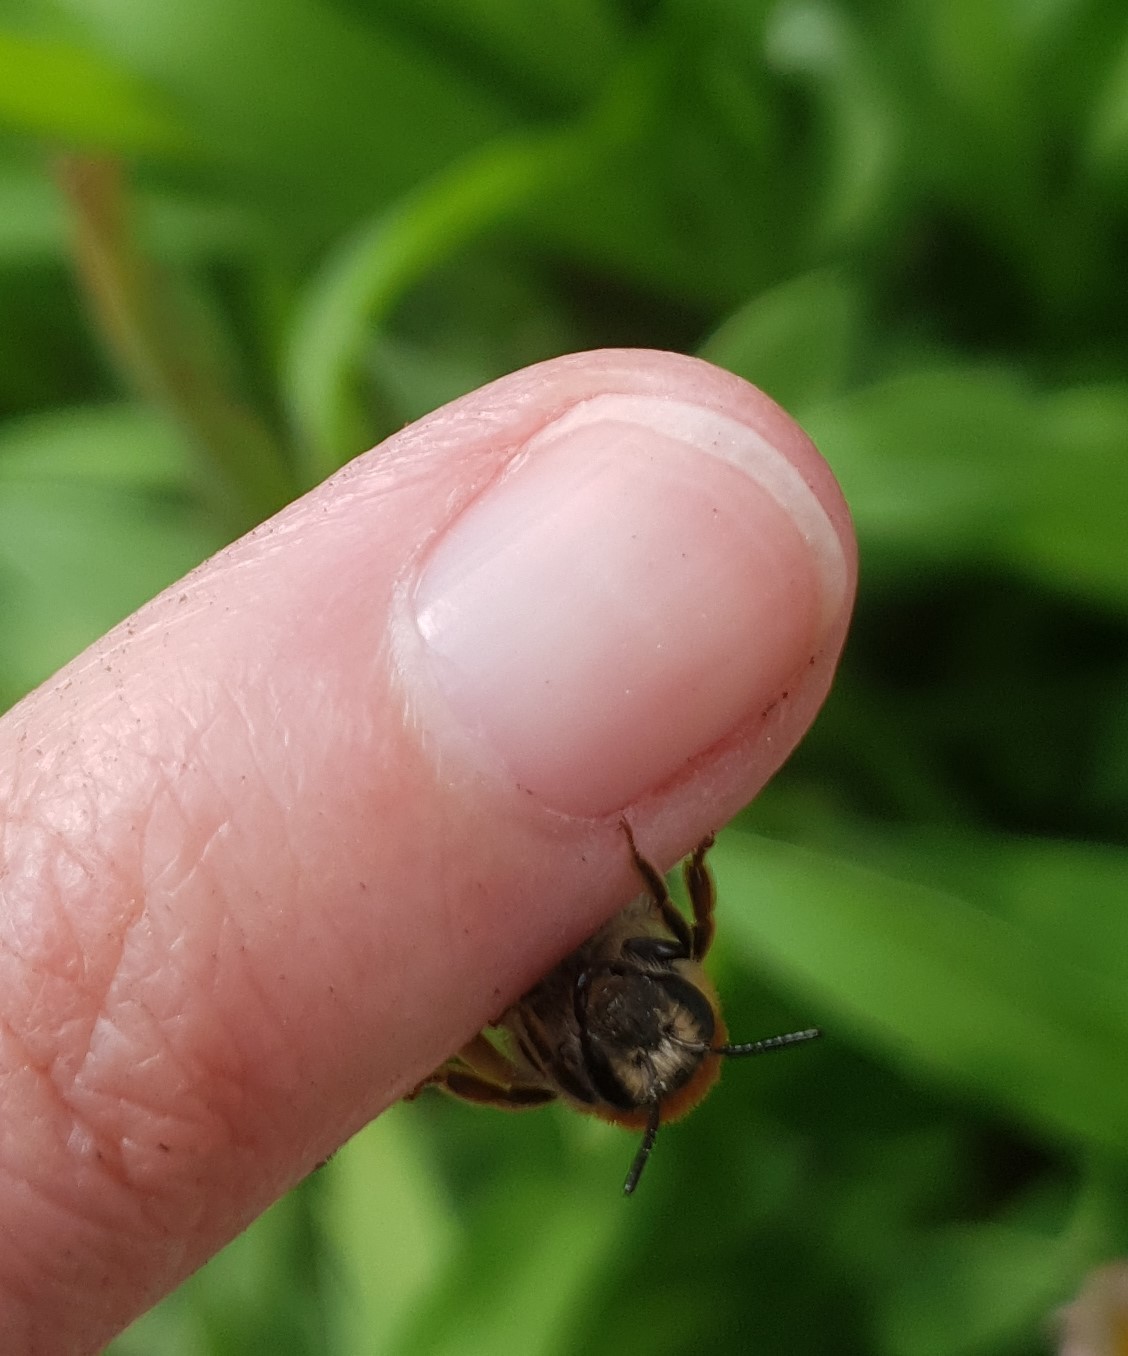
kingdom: Animalia
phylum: Arthropoda
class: Insecta
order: Hymenoptera
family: Andrenidae
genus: Andrena
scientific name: Andrena haemorrhoa
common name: Early mining bee
